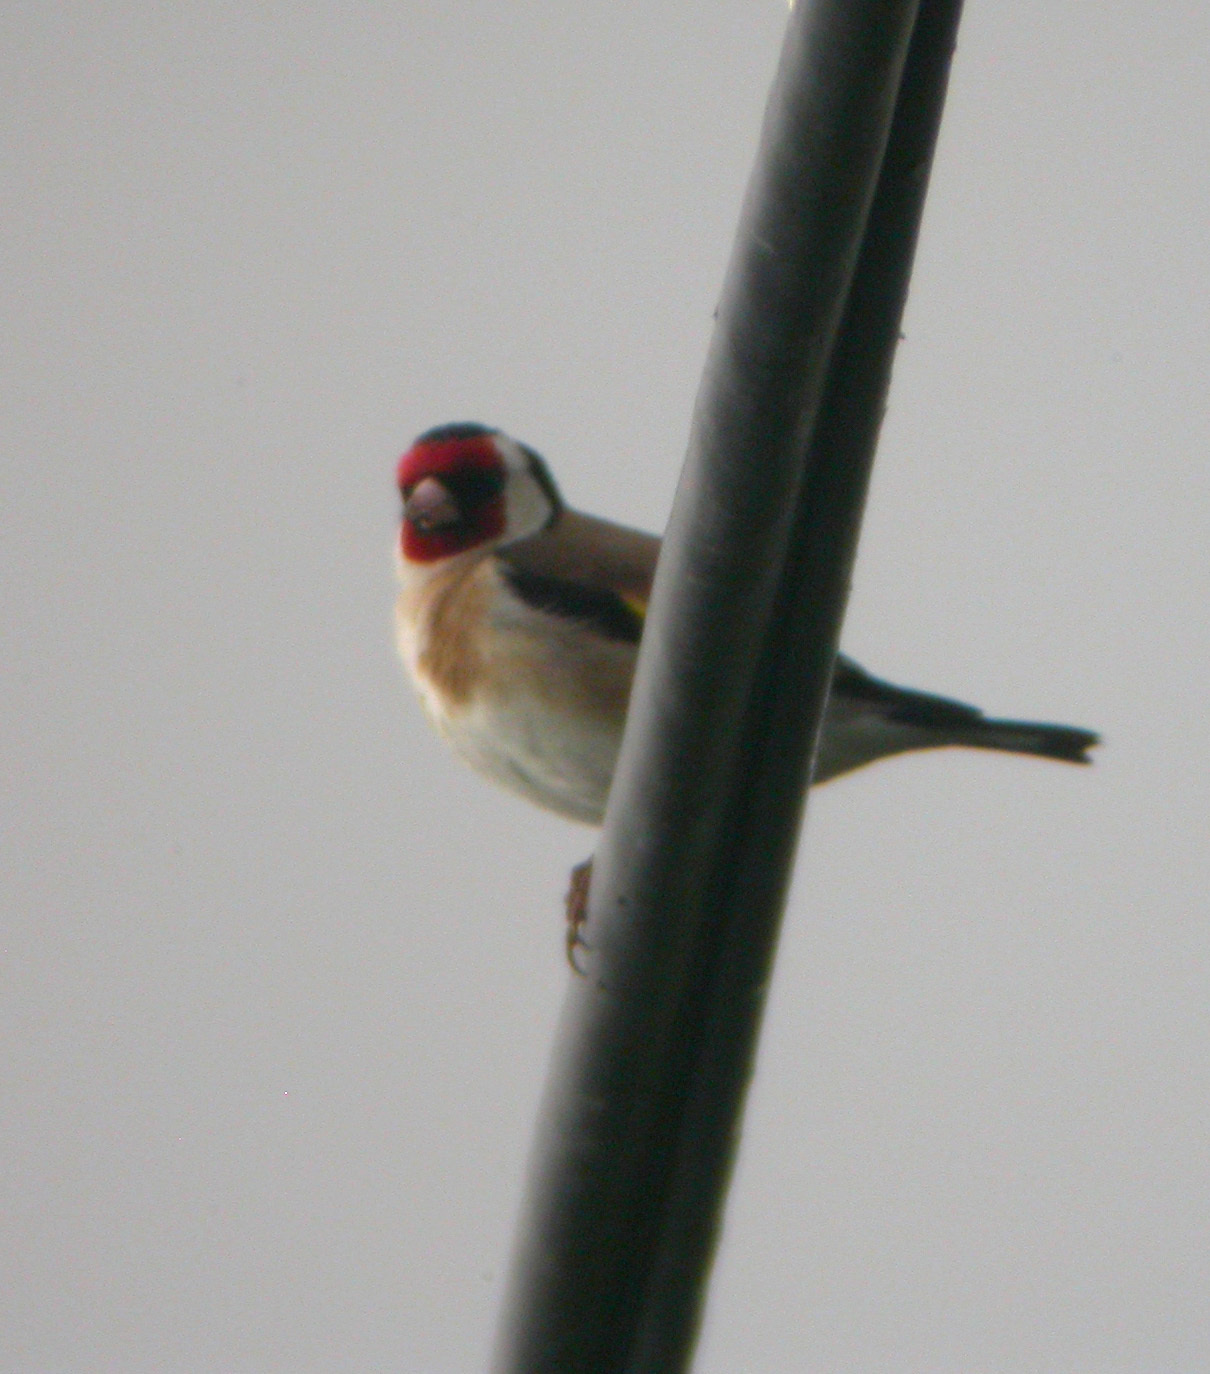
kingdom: Animalia
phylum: Chordata
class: Aves
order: Passeriformes
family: Fringillidae
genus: Carduelis
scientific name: Carduelis carduelis
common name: European goldfinch
